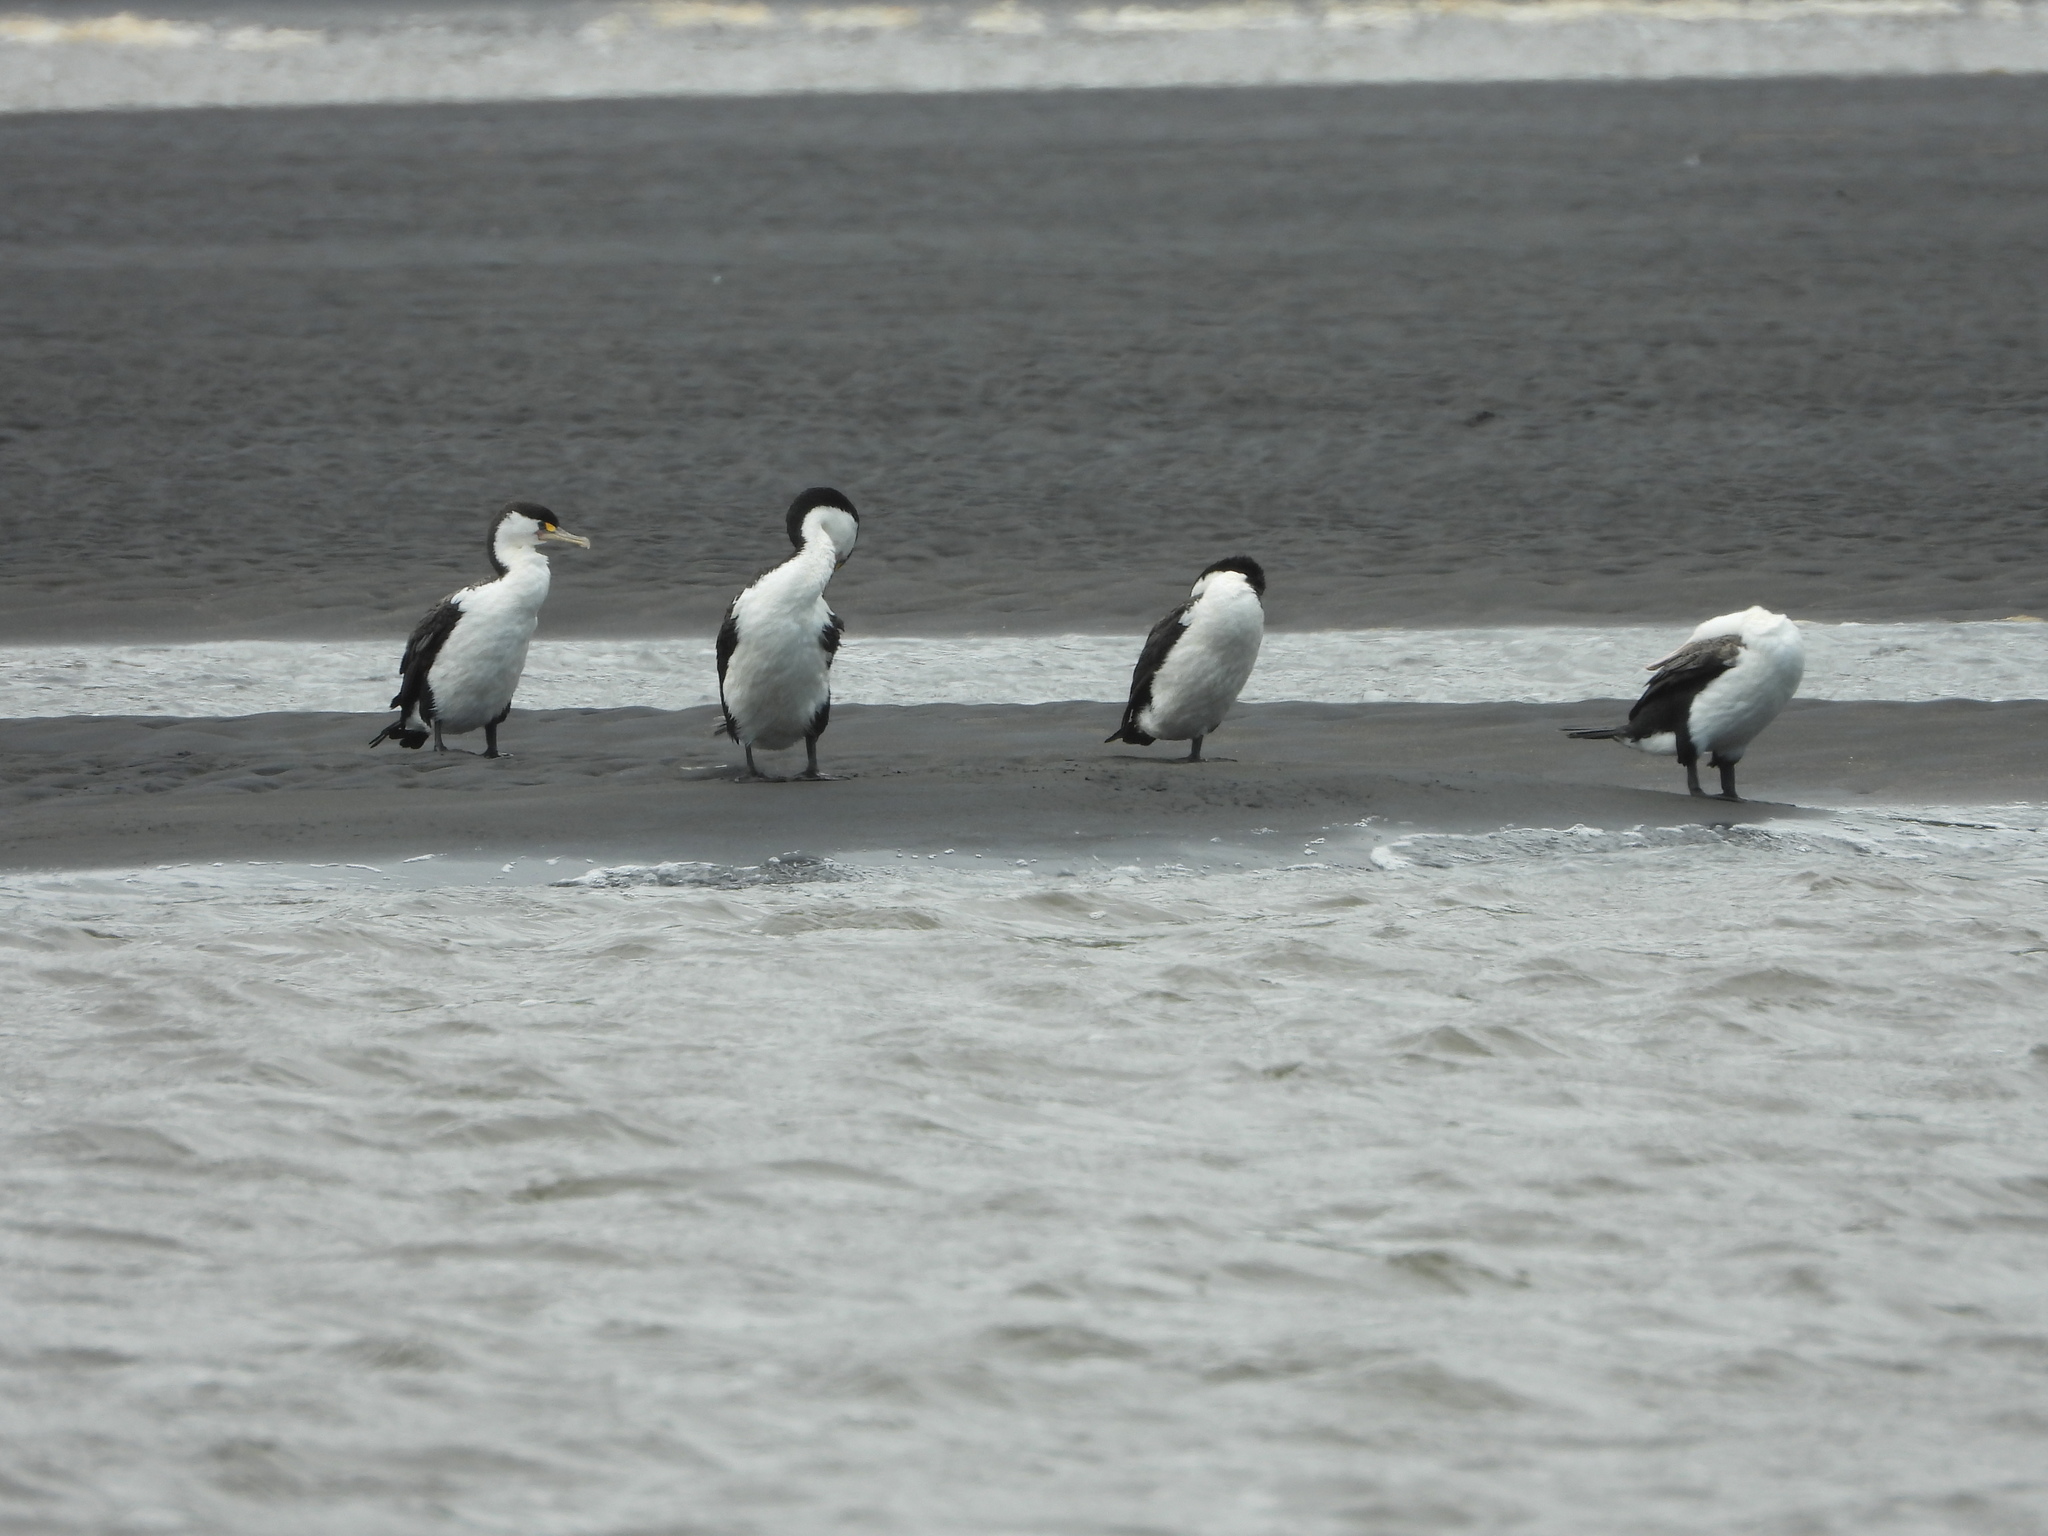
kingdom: Animalia
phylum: Chordata
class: Aves
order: Suliformes
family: Phalacrocoracidae
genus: Phalacrocorax
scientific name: Phalacrocorax varius
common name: Pied cormorant
